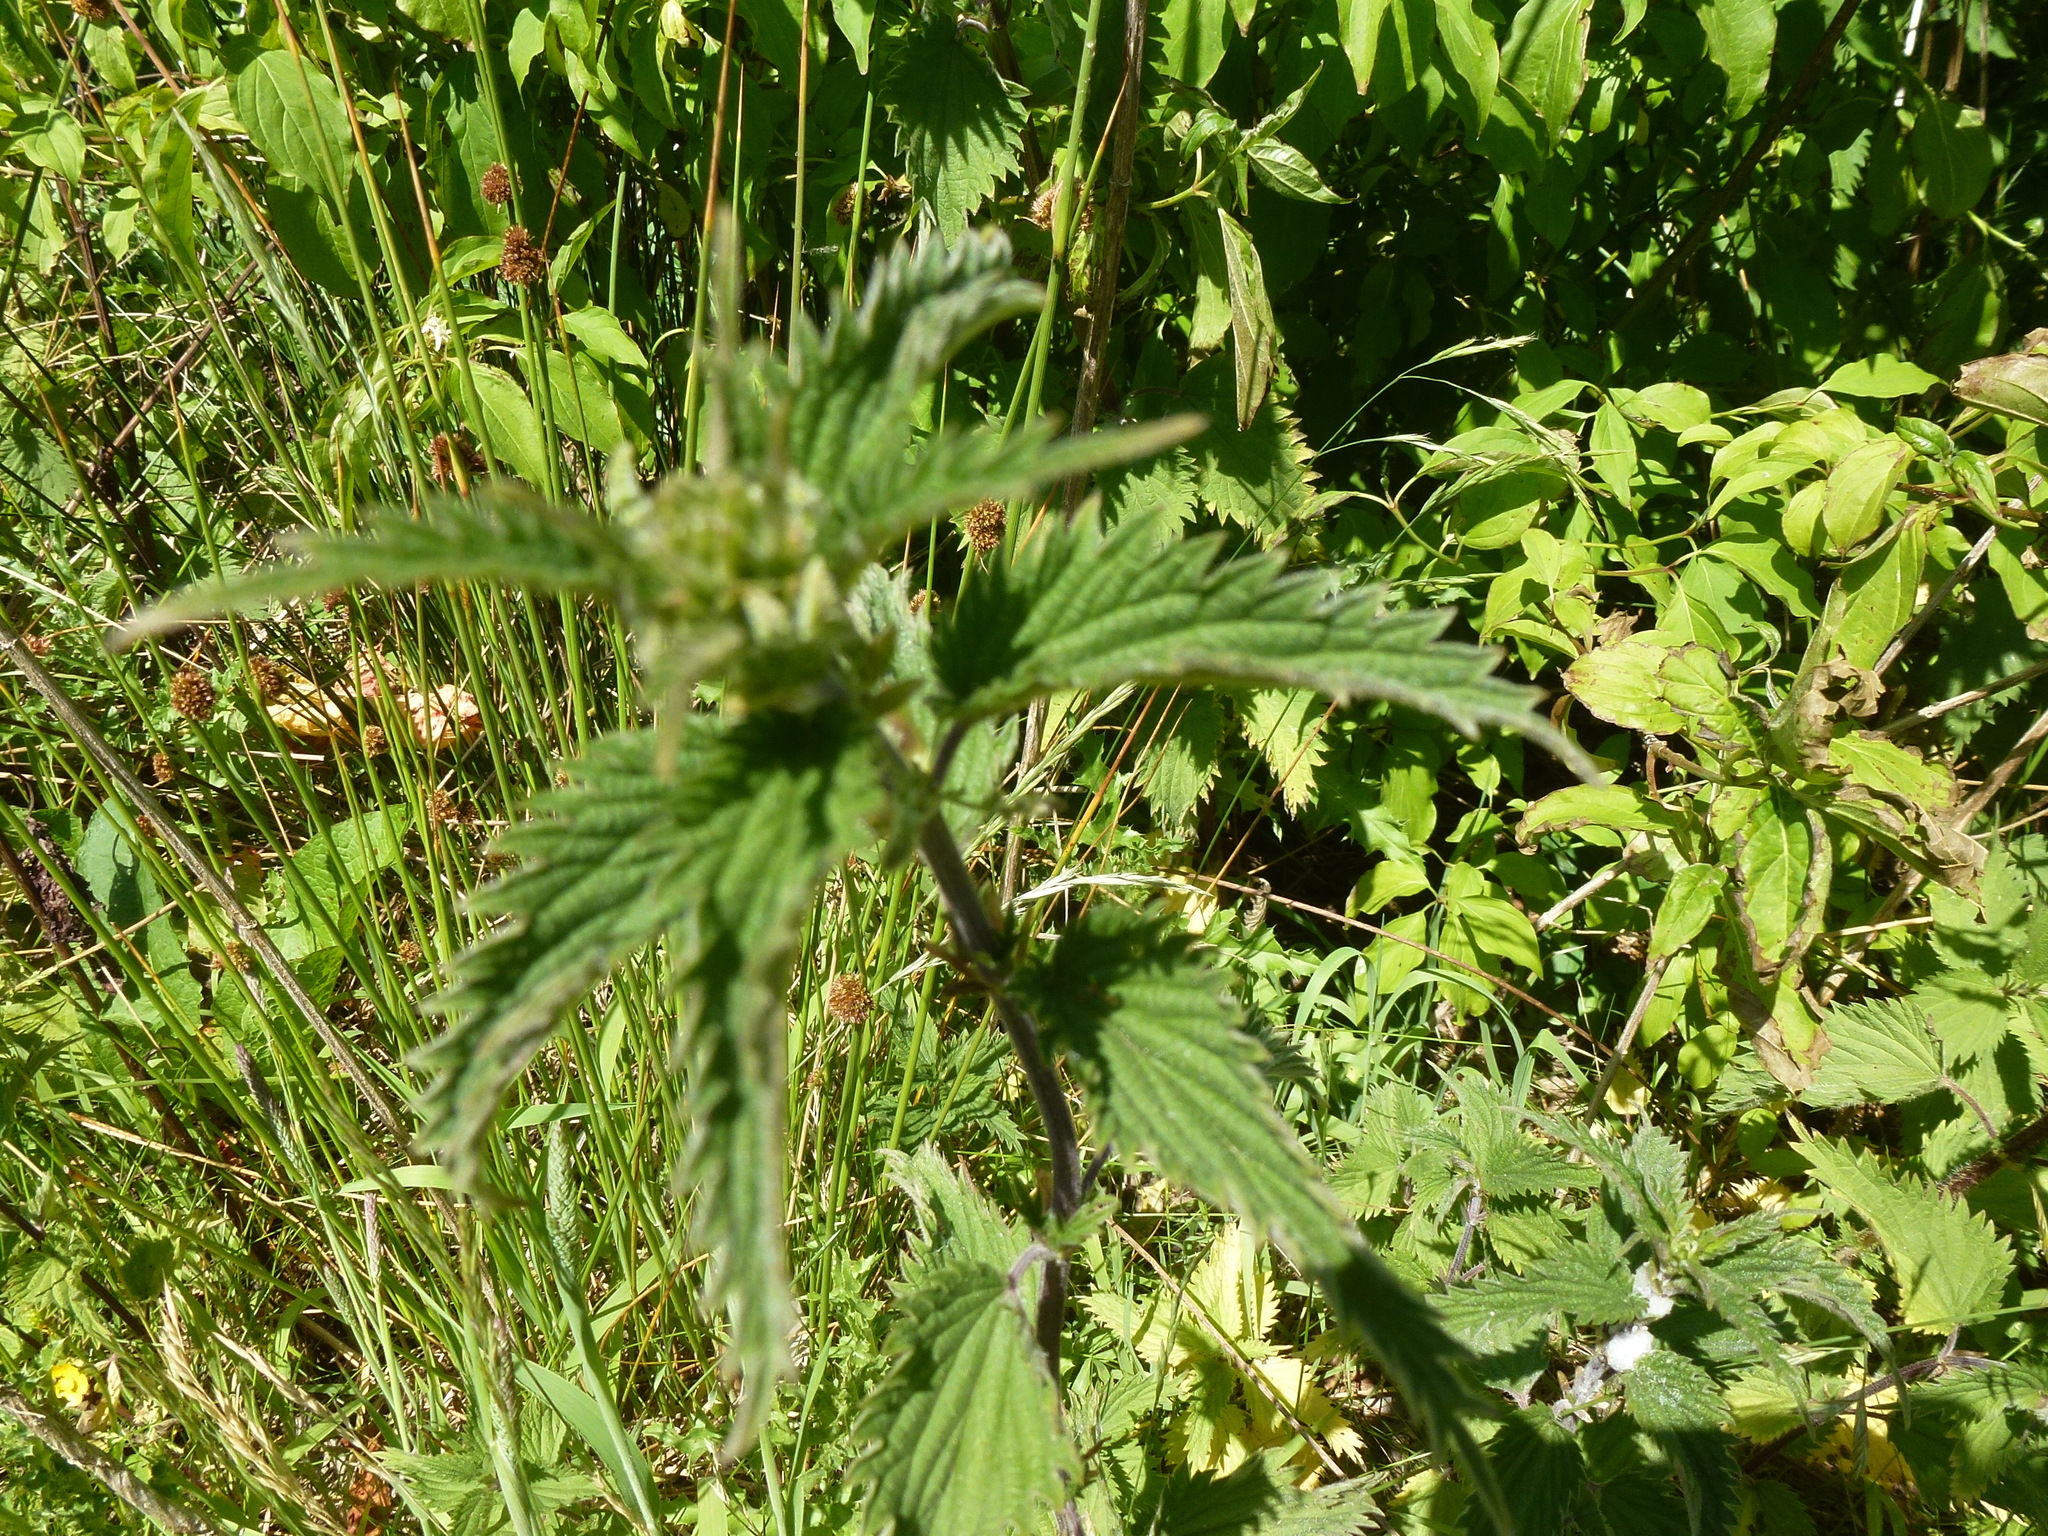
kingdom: Plantae
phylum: Tracheophyta
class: Magnoliopsida
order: Rosales
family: Urticaceae
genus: Urtica
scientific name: Urtica dioica
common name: Common nettle
